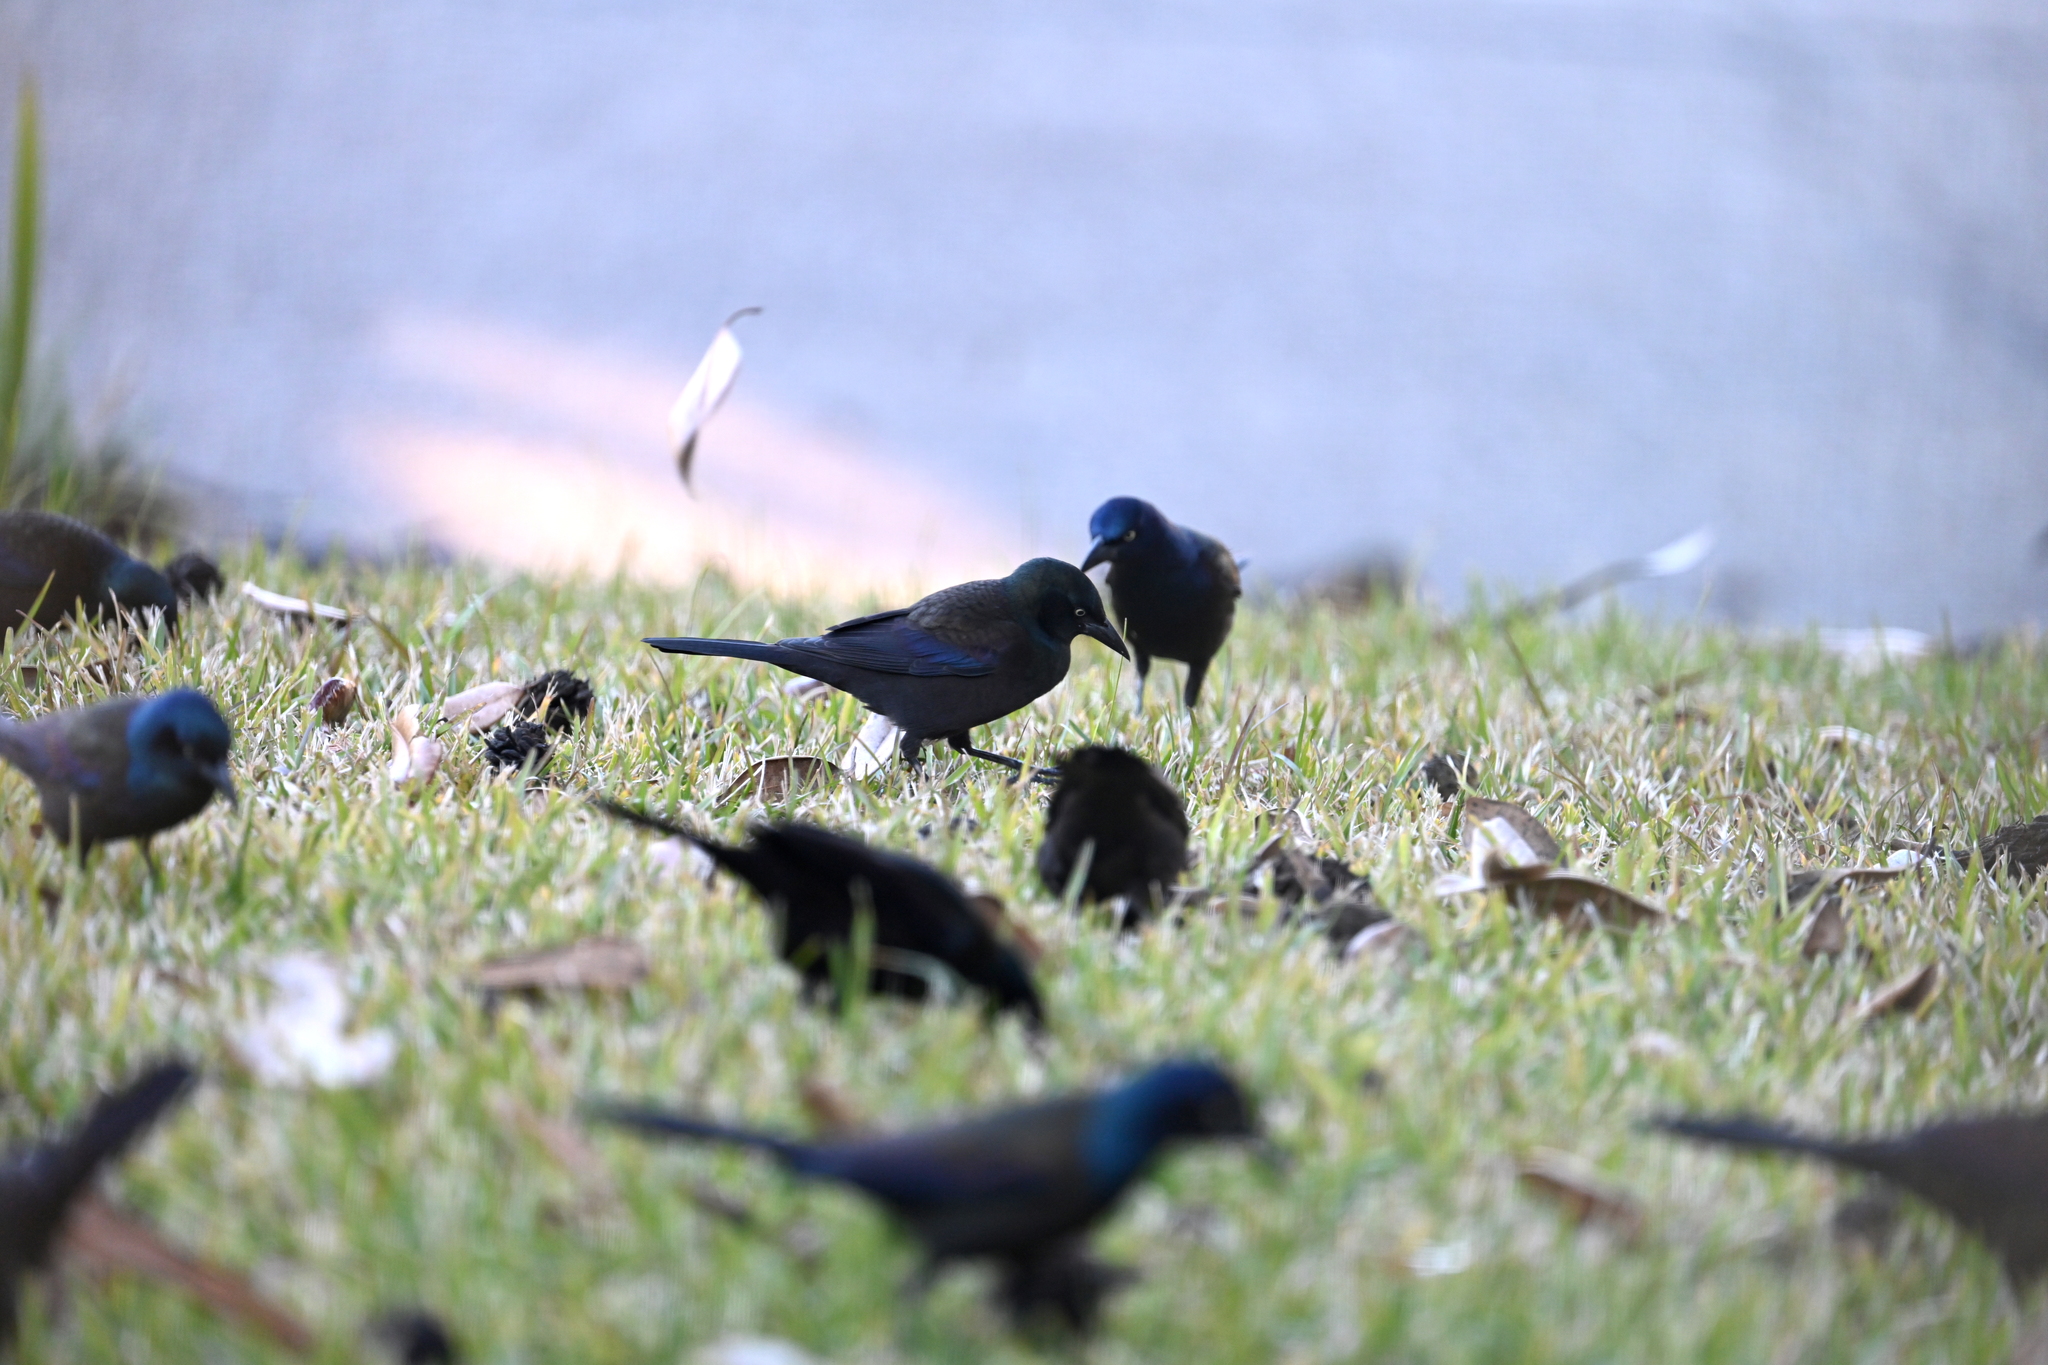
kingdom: Animalia
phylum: Chordata
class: Aves
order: Passeriformes
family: Icteridae
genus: Quiscalus
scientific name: Quiscalus quiscula
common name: Common grackle
